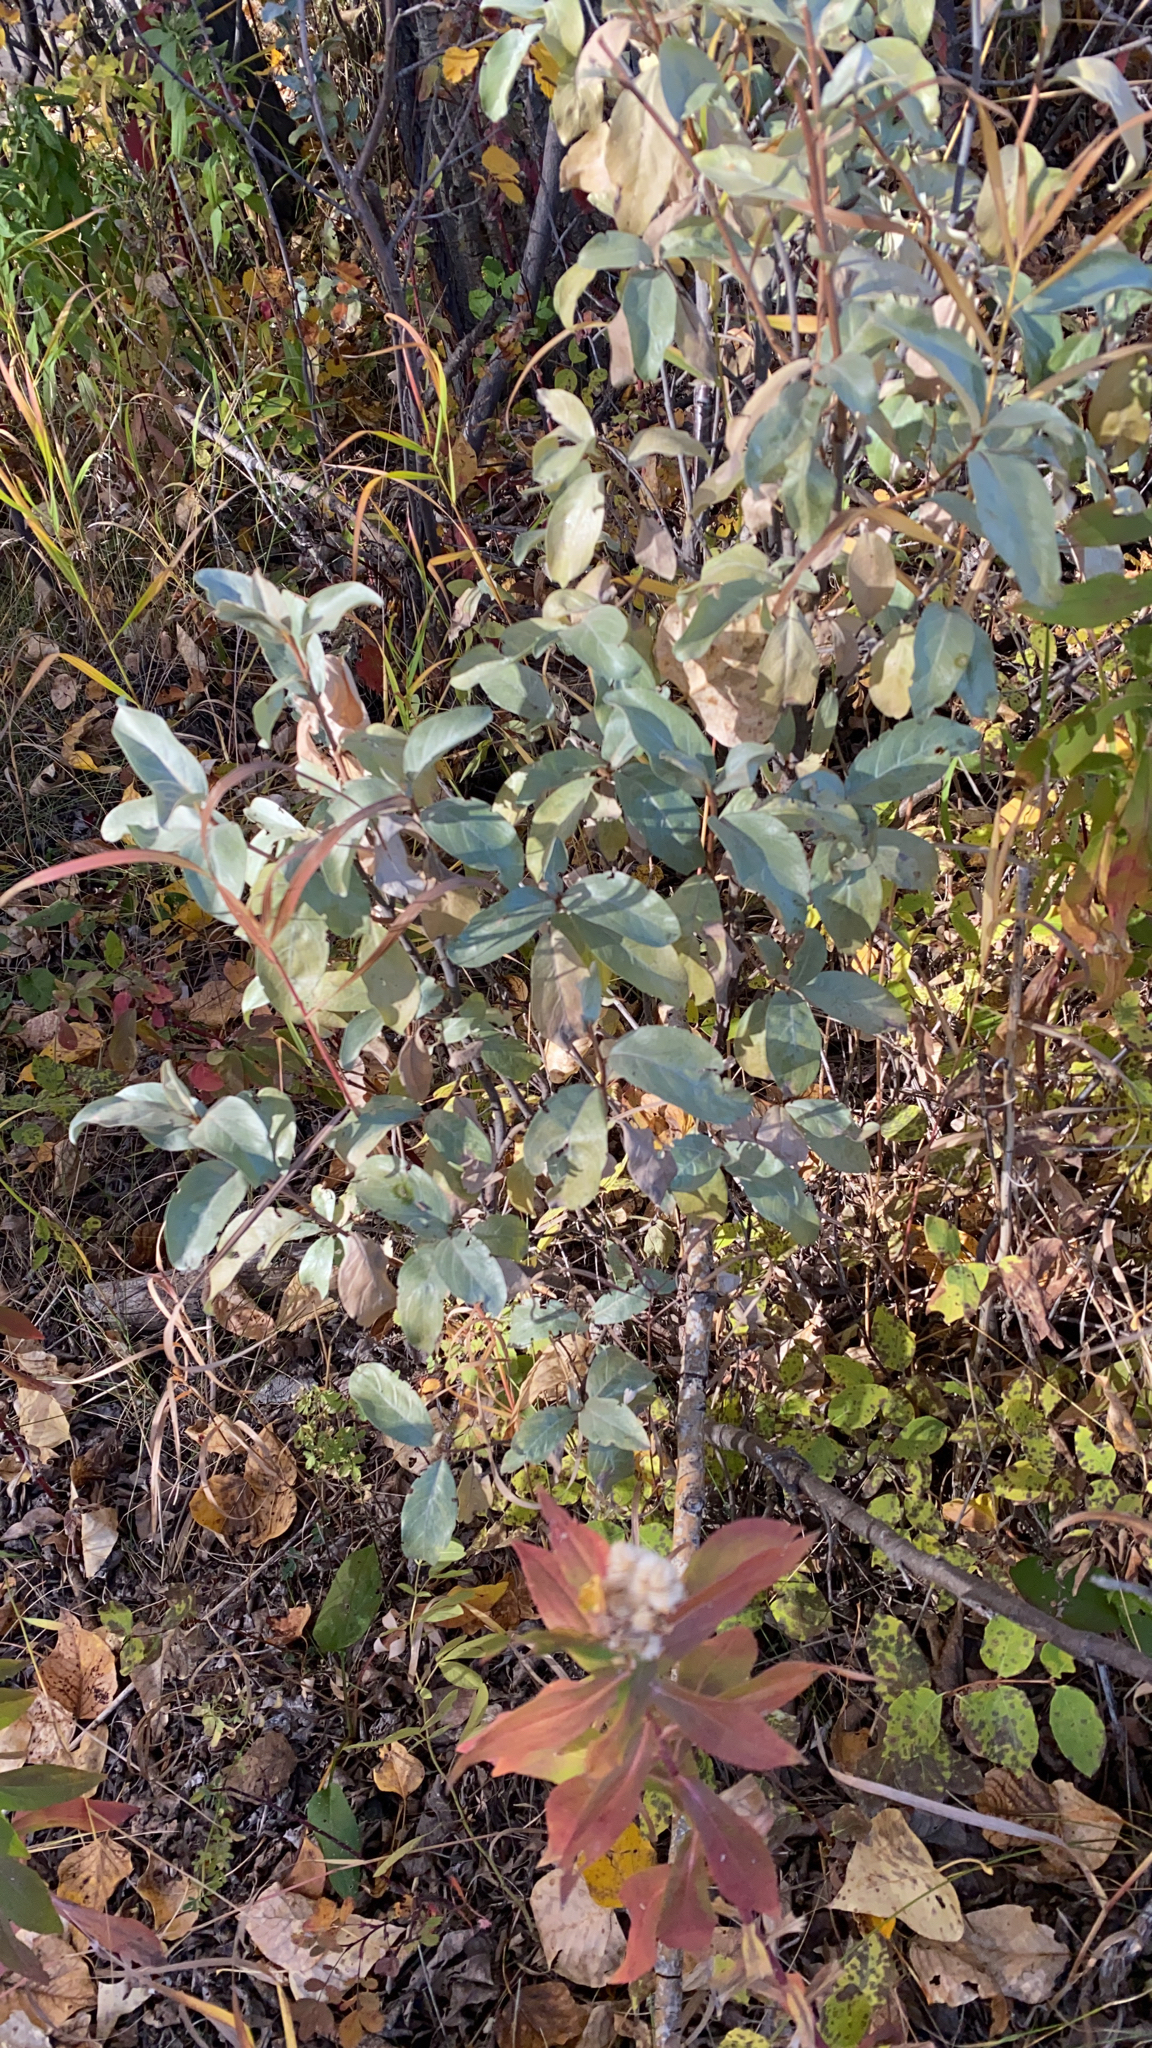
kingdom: Plantae
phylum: Tracheophyta
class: Magnoliopsida
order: Rosales
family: Elaeagnaceae
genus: Elaeagnus
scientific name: Elaeagnus commutata
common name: Silverberry
